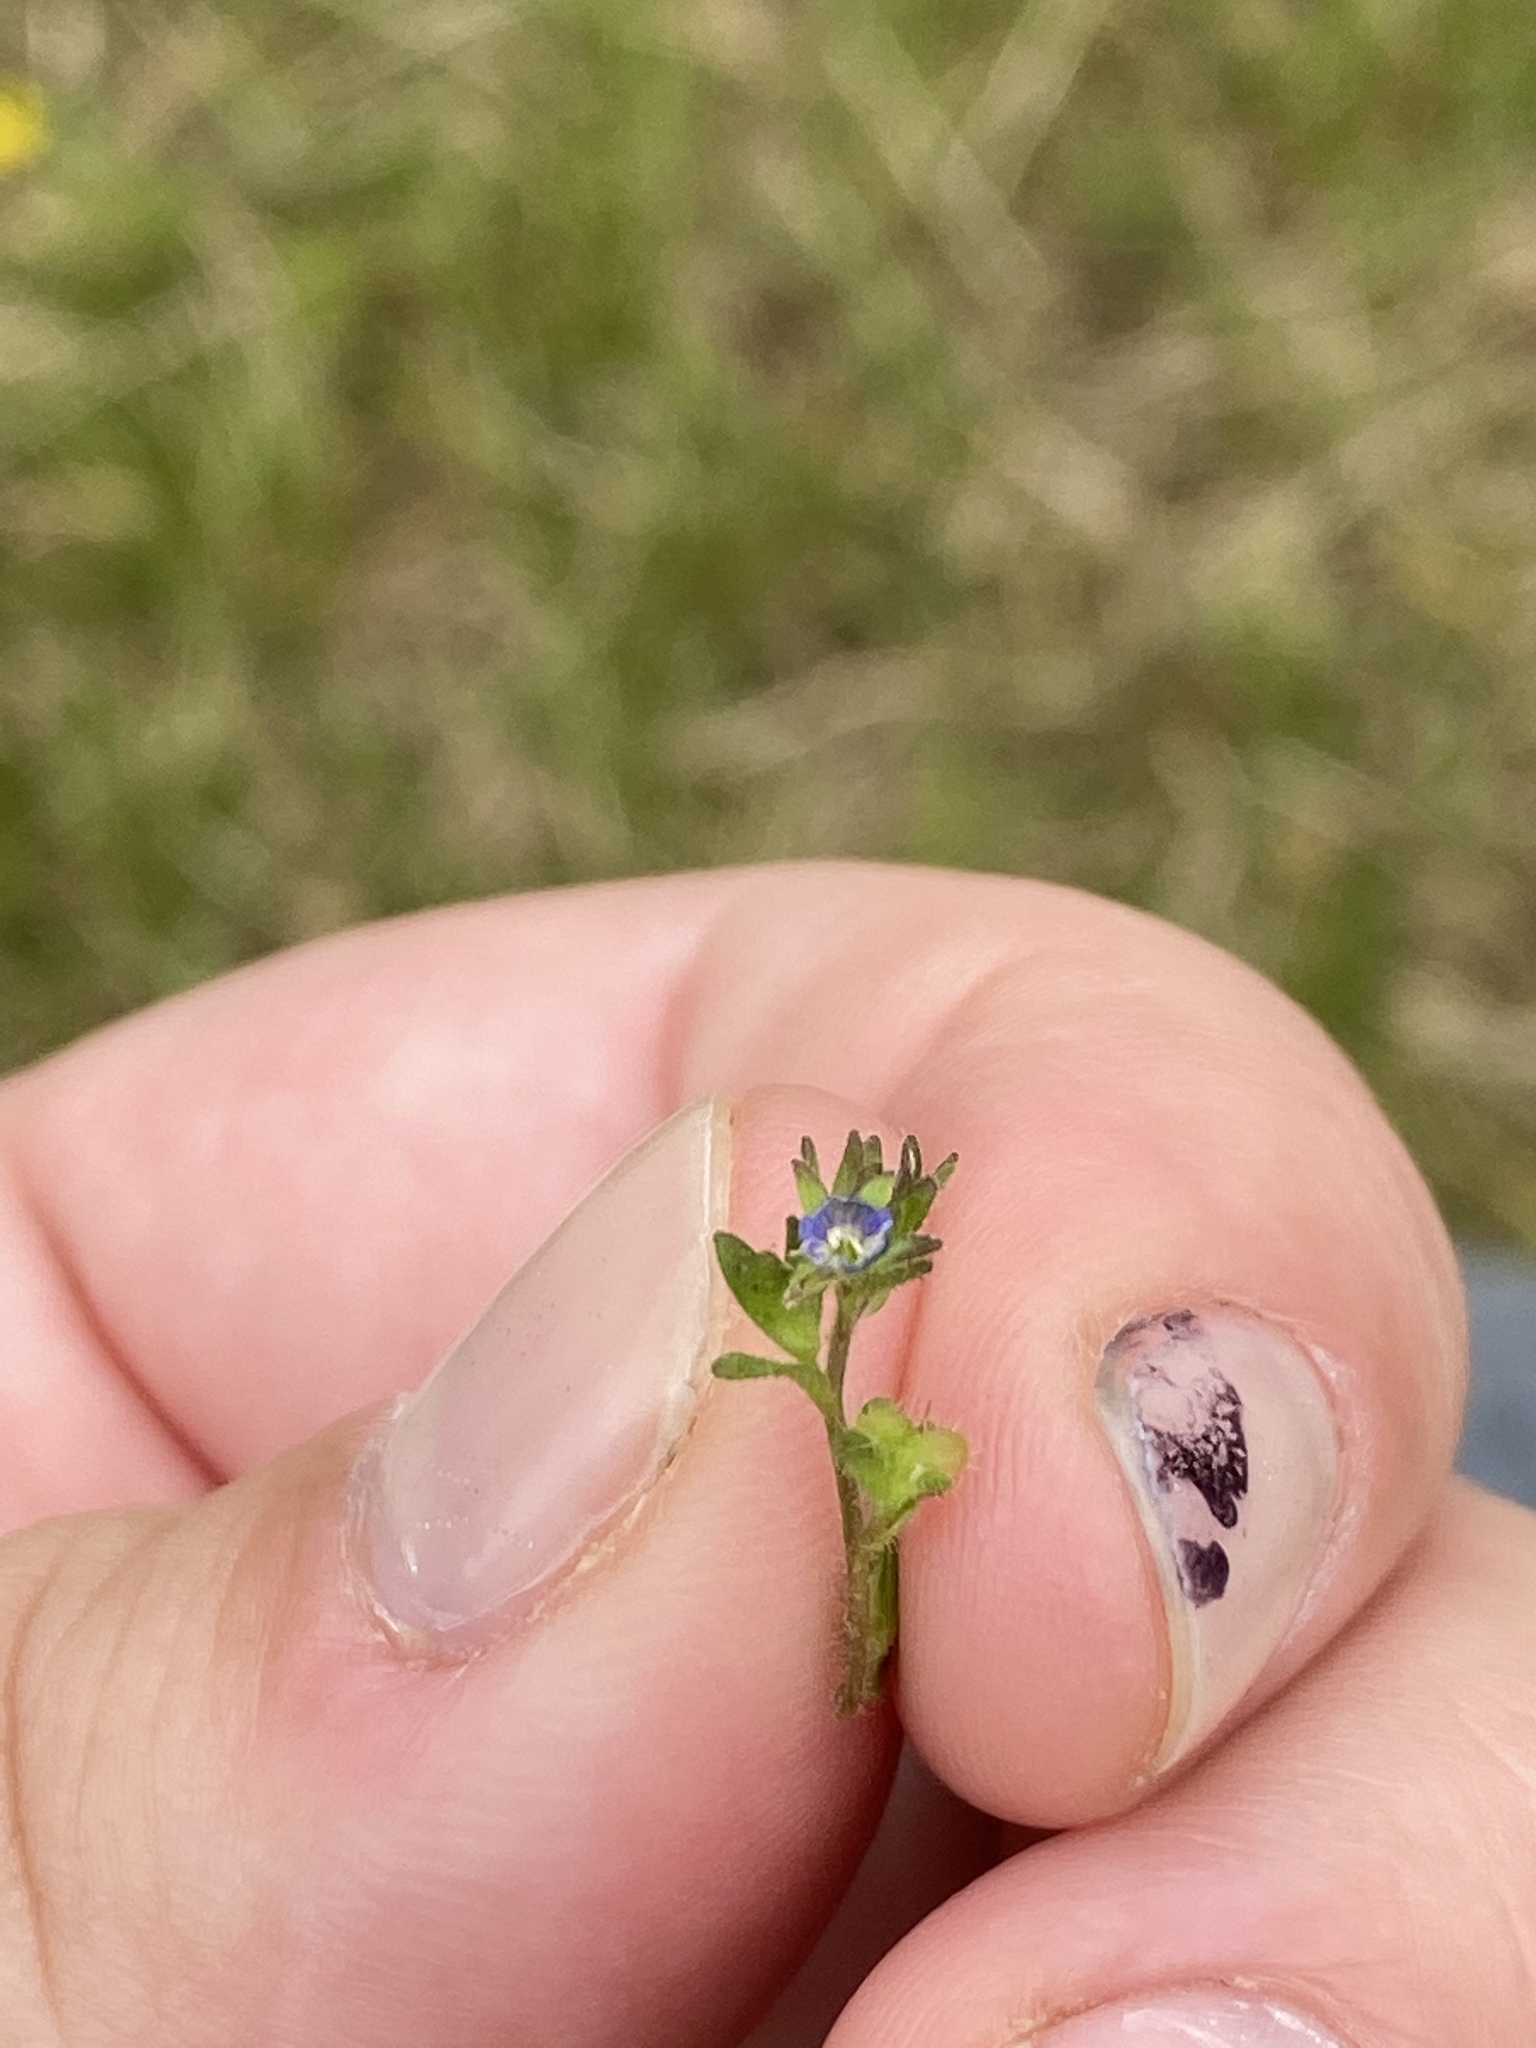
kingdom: Plantae
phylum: Tracheophyta
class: Magnoliopsida
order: Lamiales
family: Plantaginaceae
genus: Veronica
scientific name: Veronica arvensis
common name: Corn speedwell
